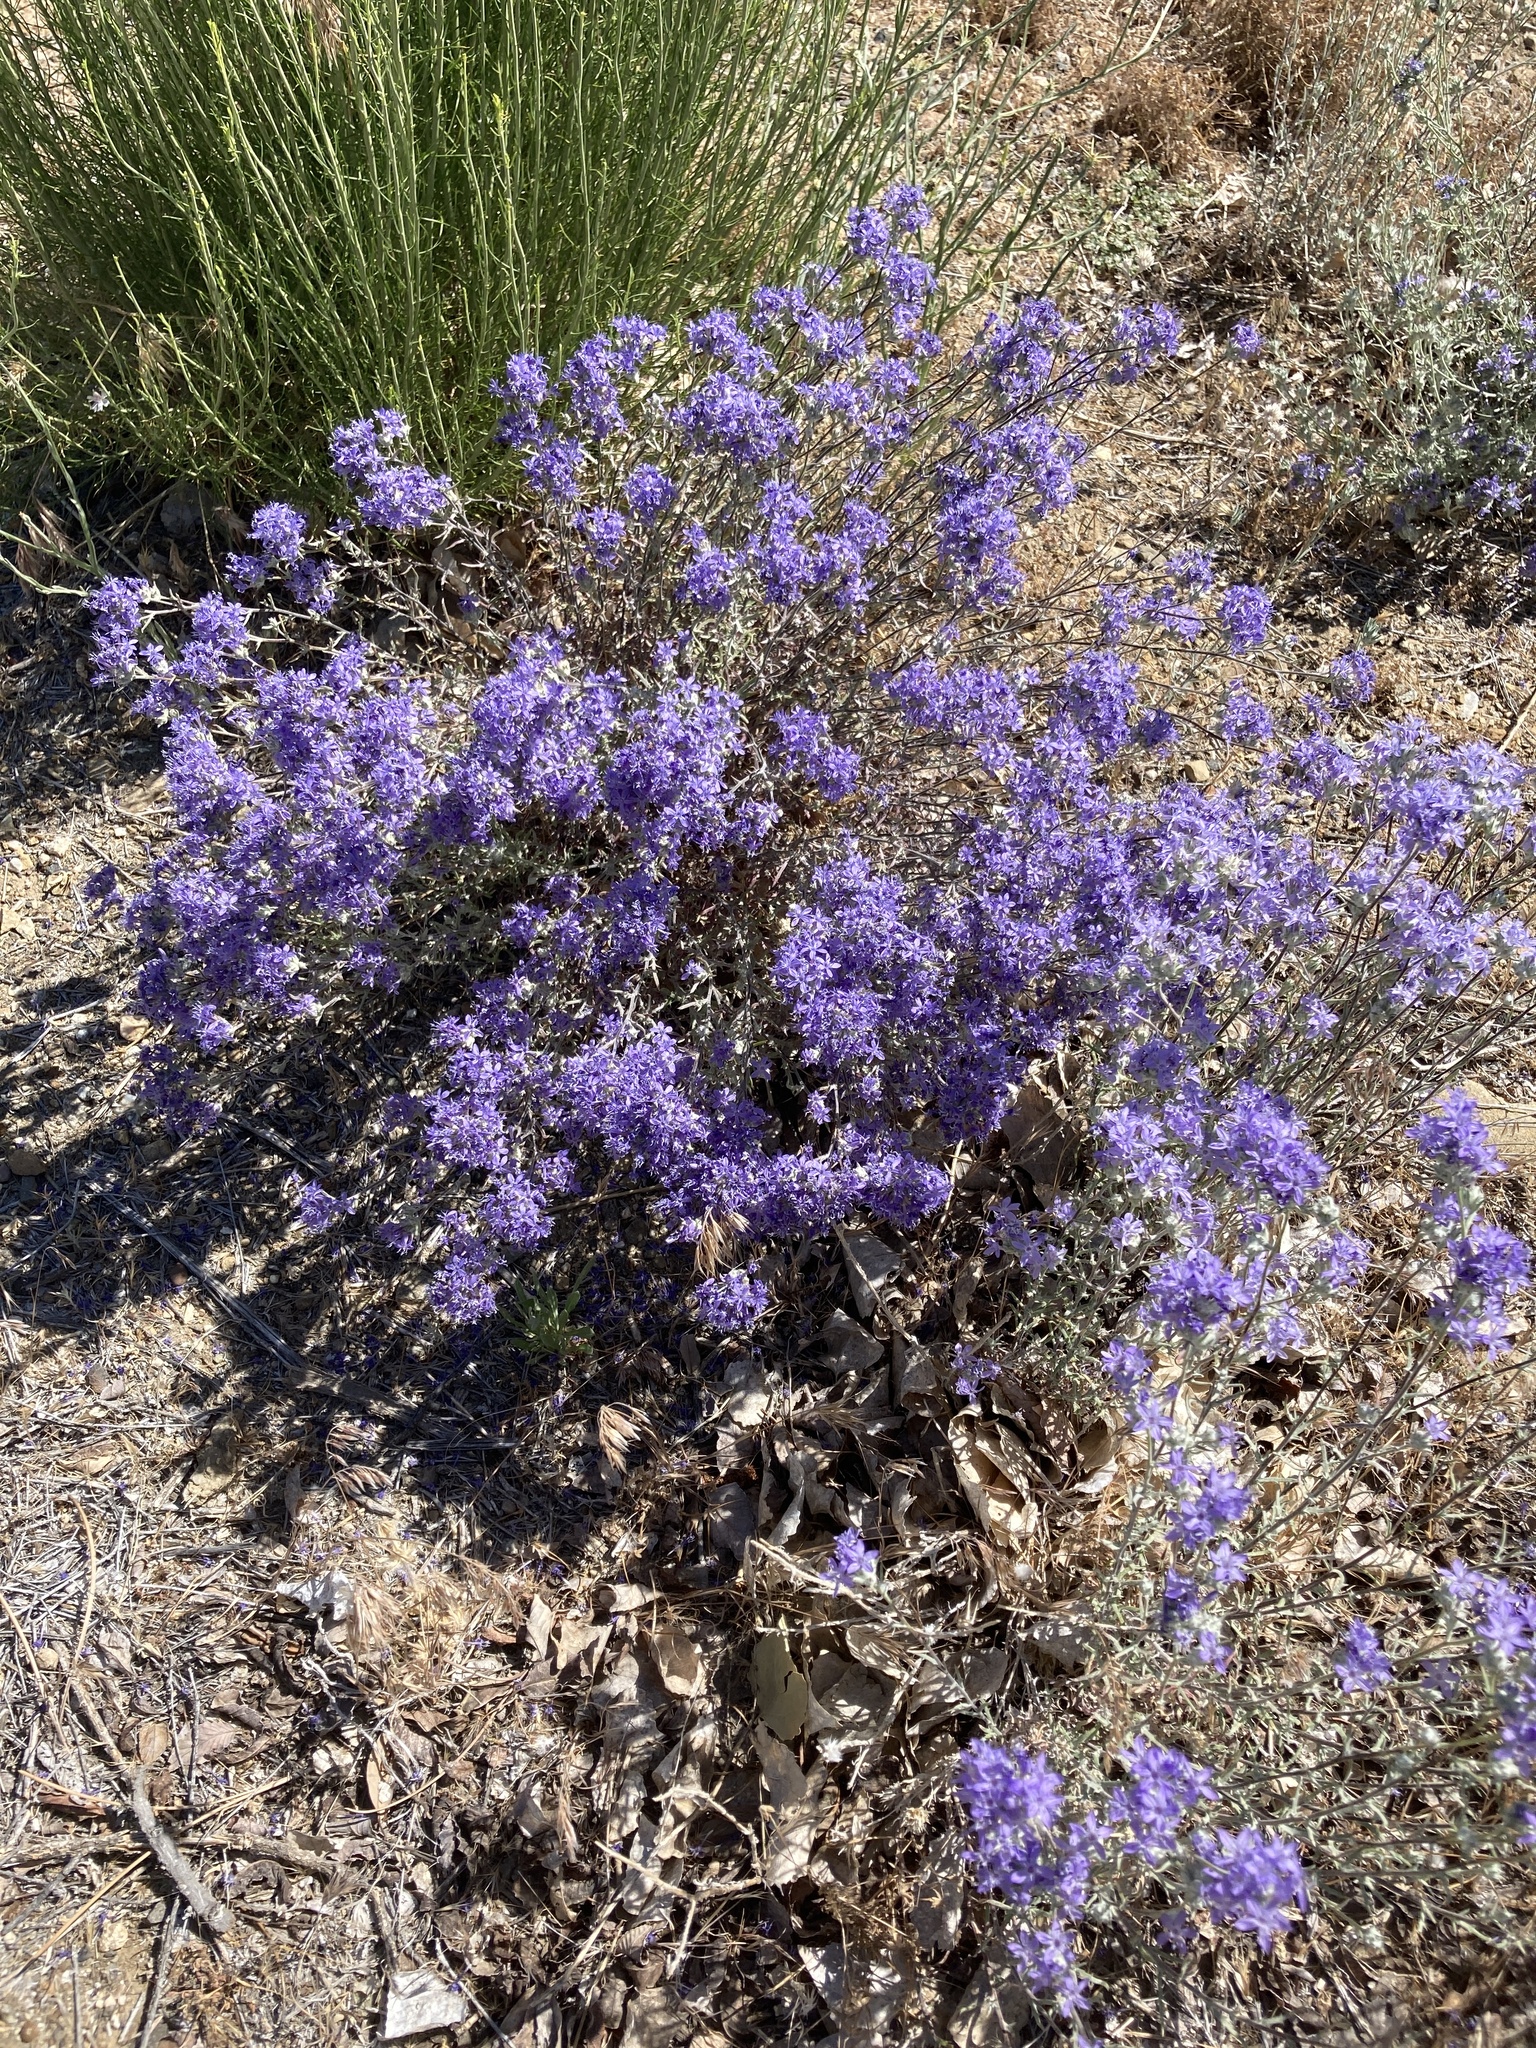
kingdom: Plantae
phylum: Tracheophyta
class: Magnoliopsida
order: Ericales
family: Polemoniaceae
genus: Eriastrum
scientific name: Eriastrum densifolium
